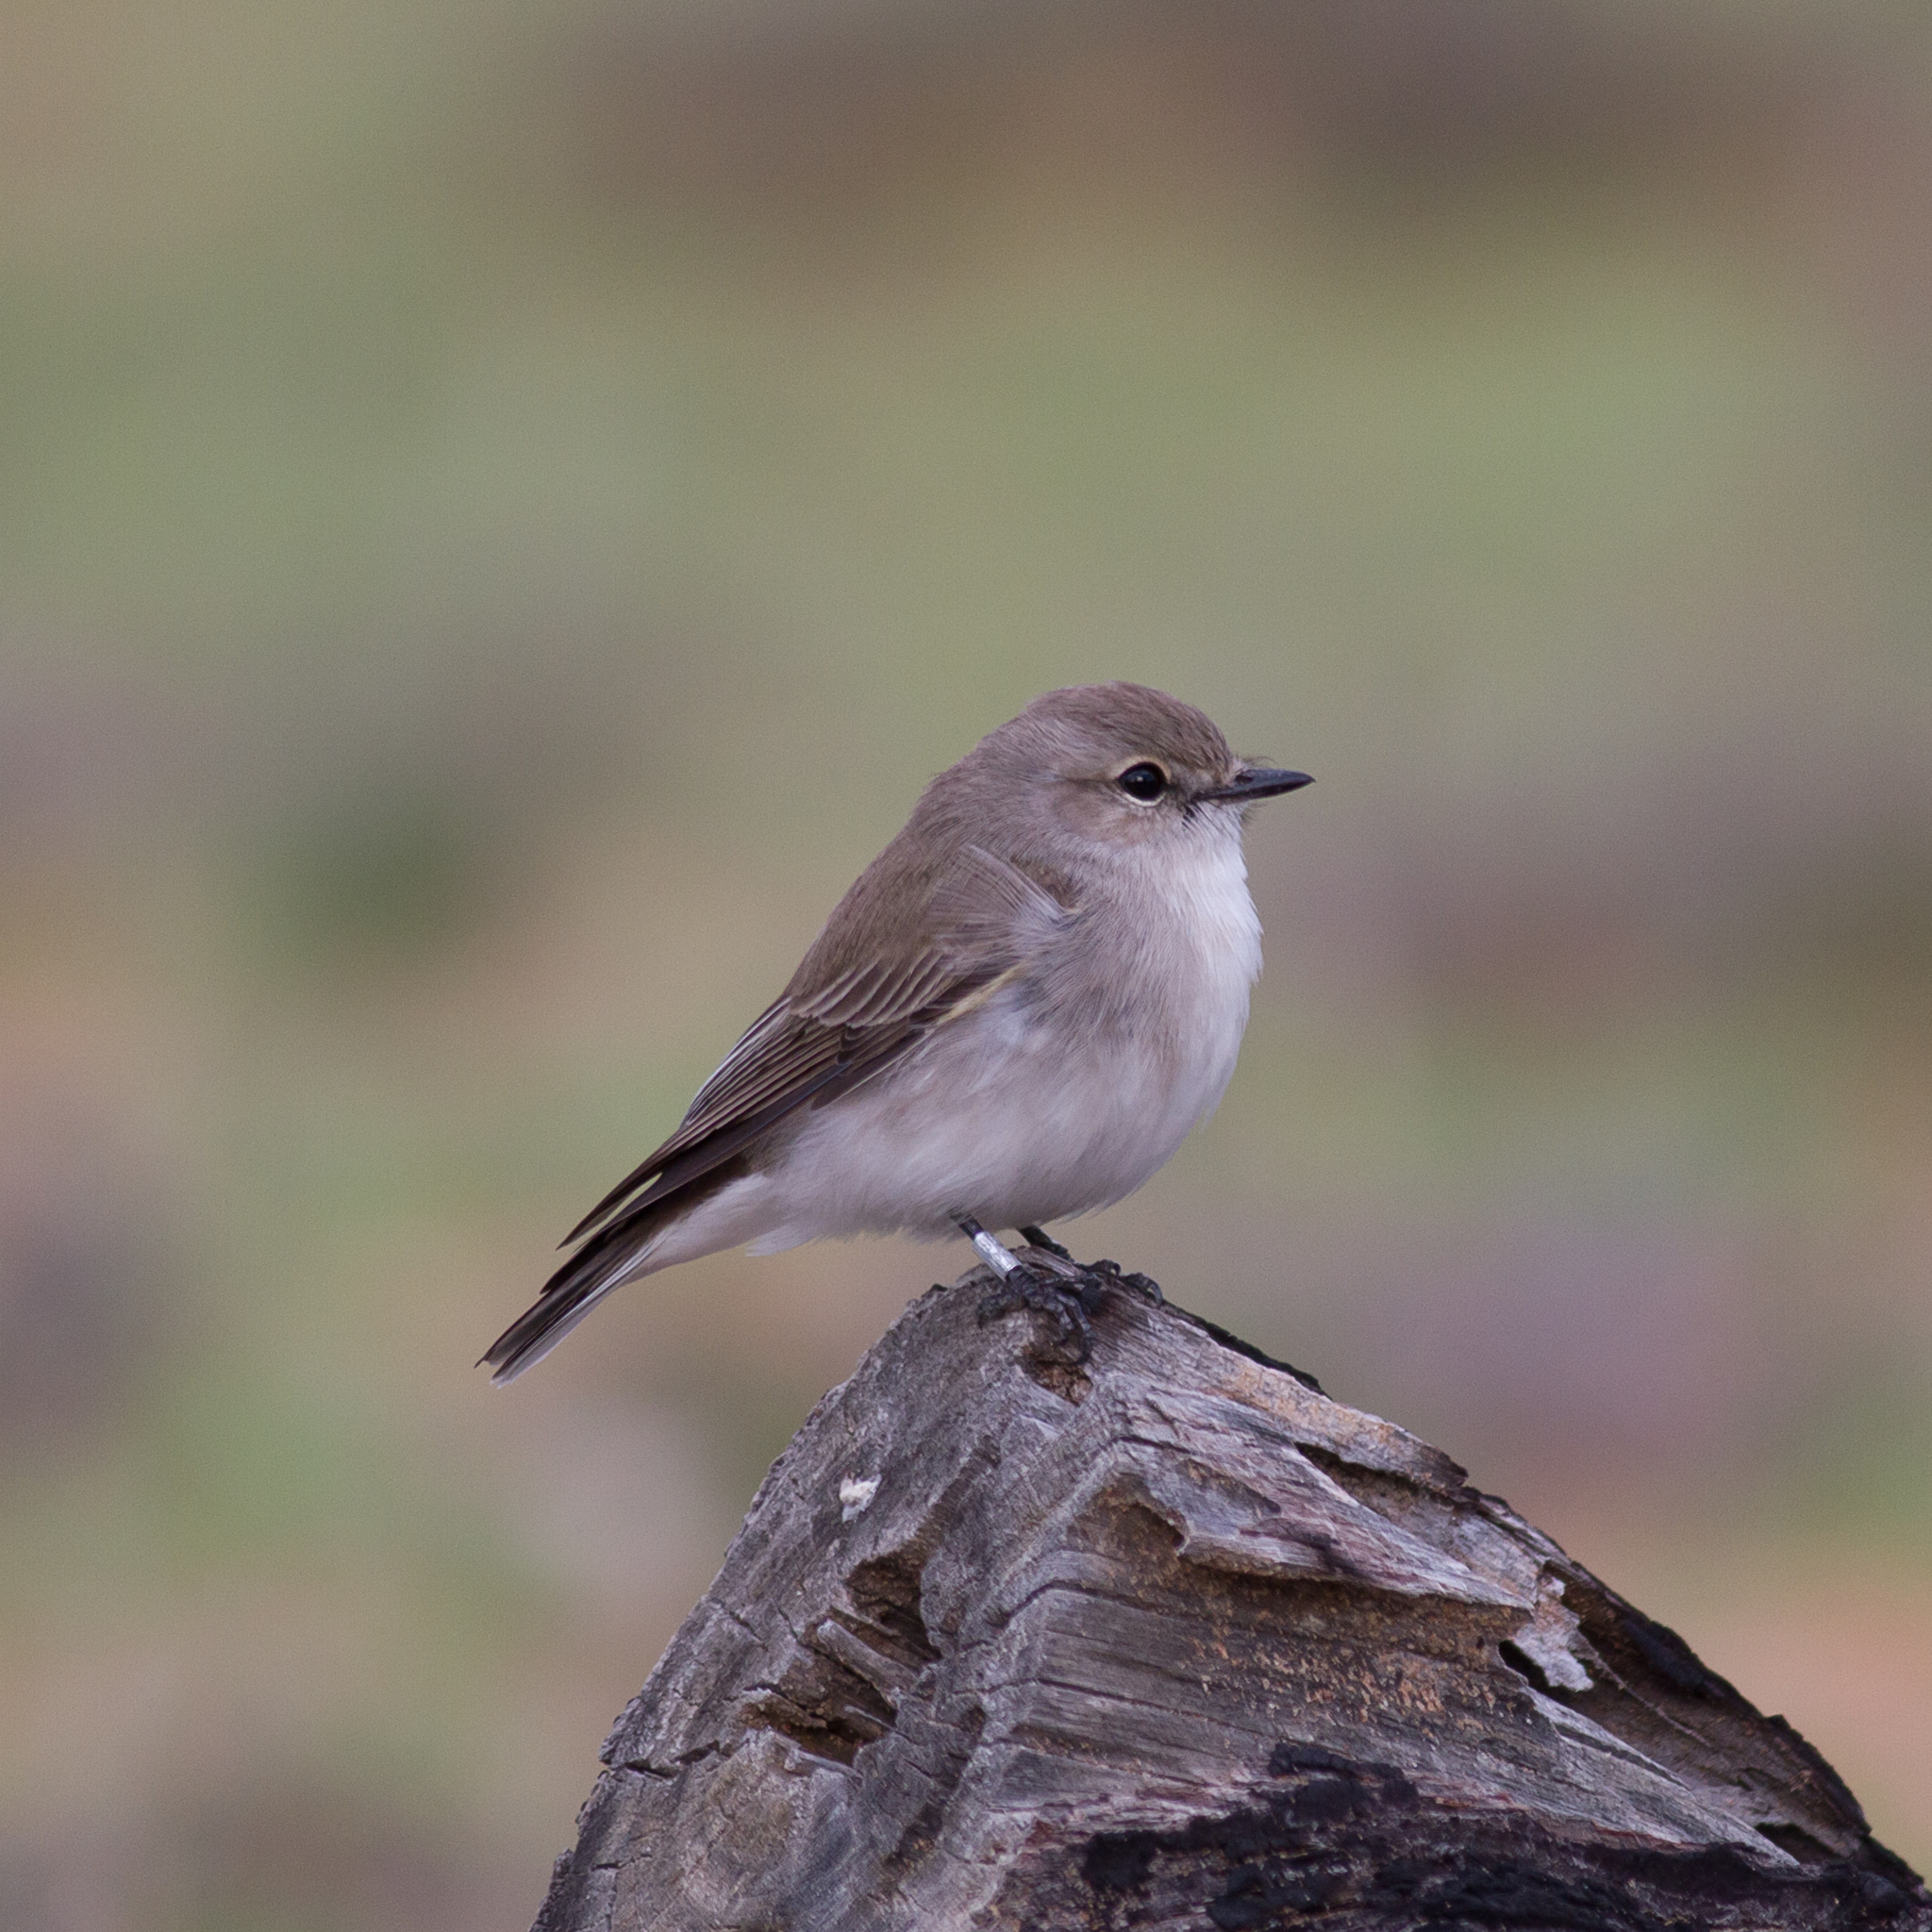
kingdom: Animalia
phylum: Chordata
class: Aves
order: Passeriformes
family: Petroicidae
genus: Microeca
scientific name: Microeca fascinans
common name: Jacky winter
